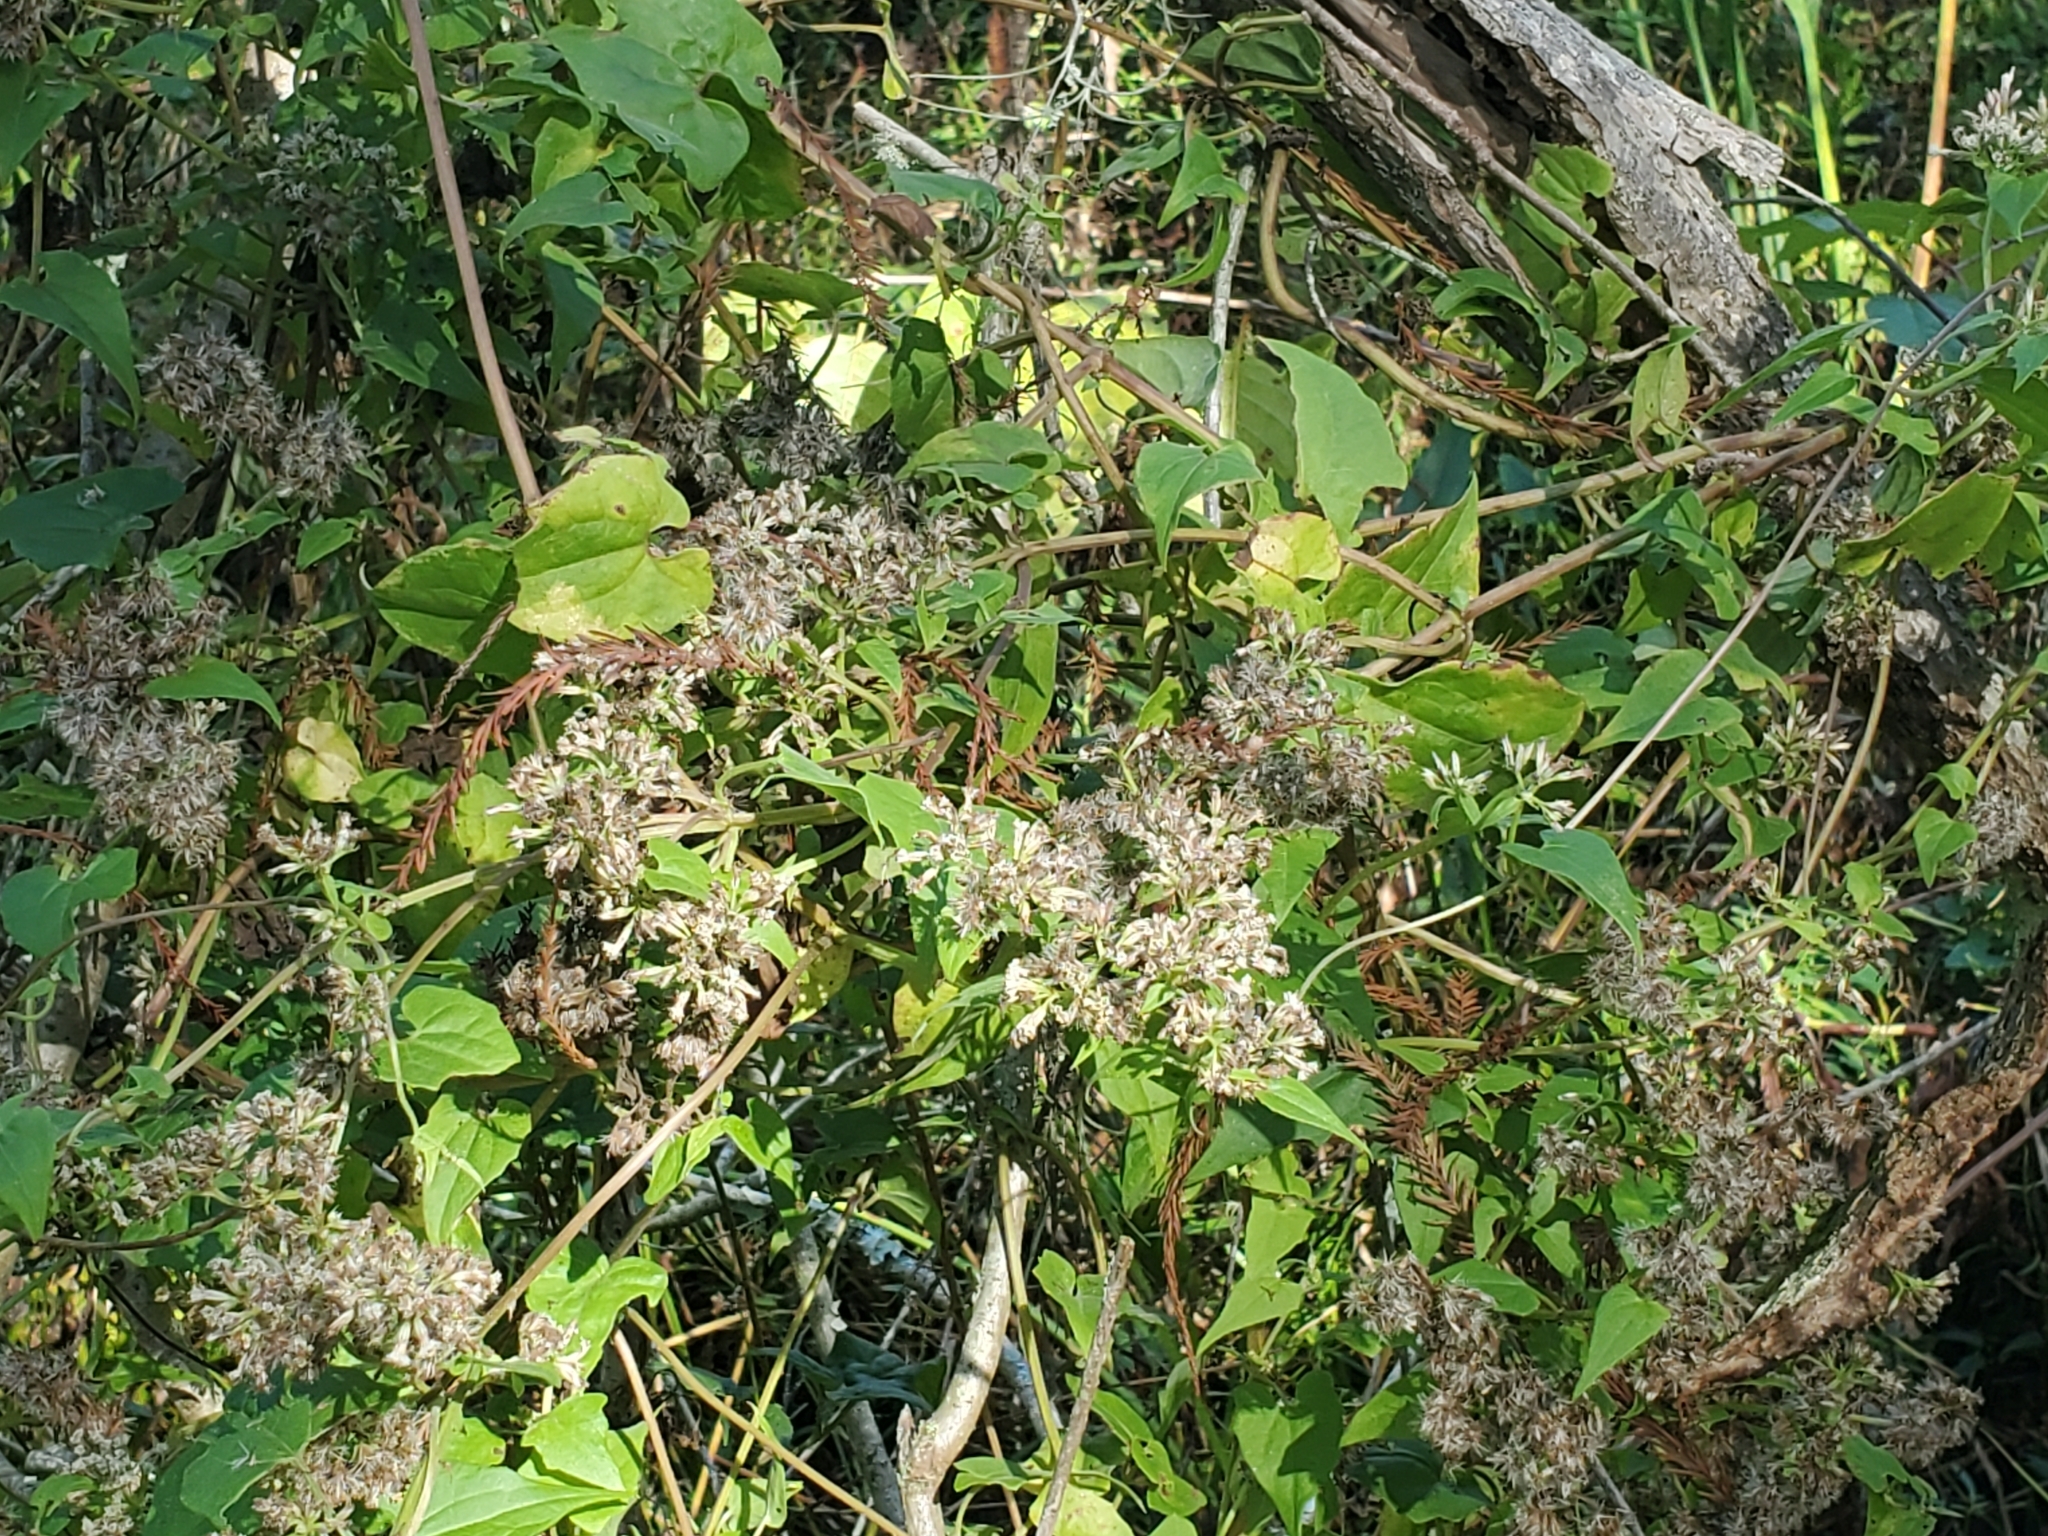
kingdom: Plantae
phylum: Tracheophyta
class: Magnoliopsida
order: Asterales
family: Asteraceae
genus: Mikania
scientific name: Mikania scandens
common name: Climbing hempvine
